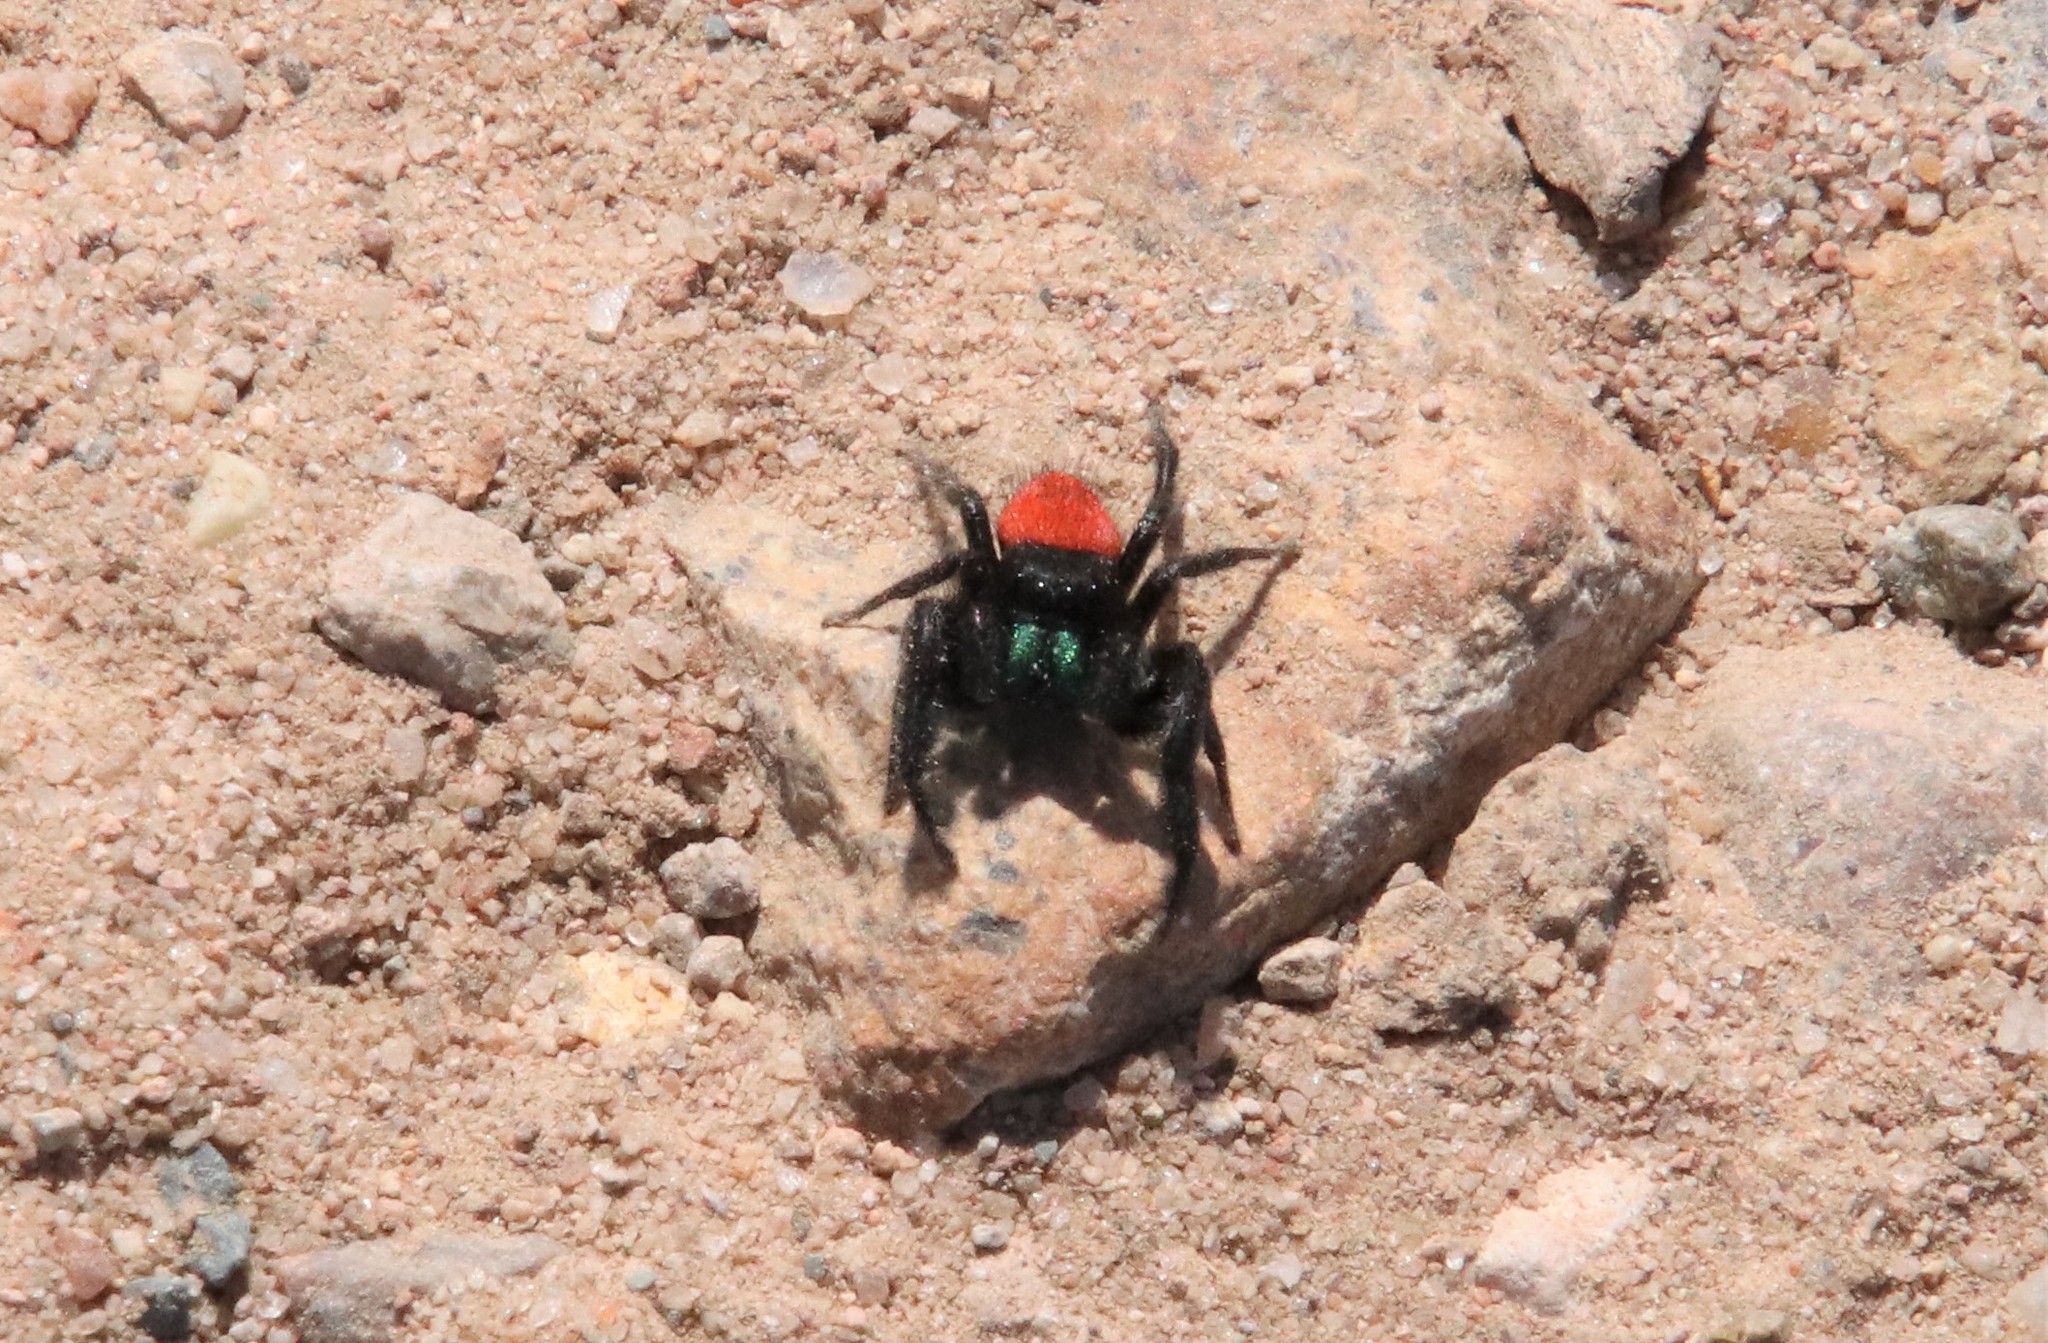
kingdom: Animalia
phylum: Arthropoda
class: Arachnida
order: Araneae
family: Salticidae
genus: Phidippus
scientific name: Phidippus johnsoni
